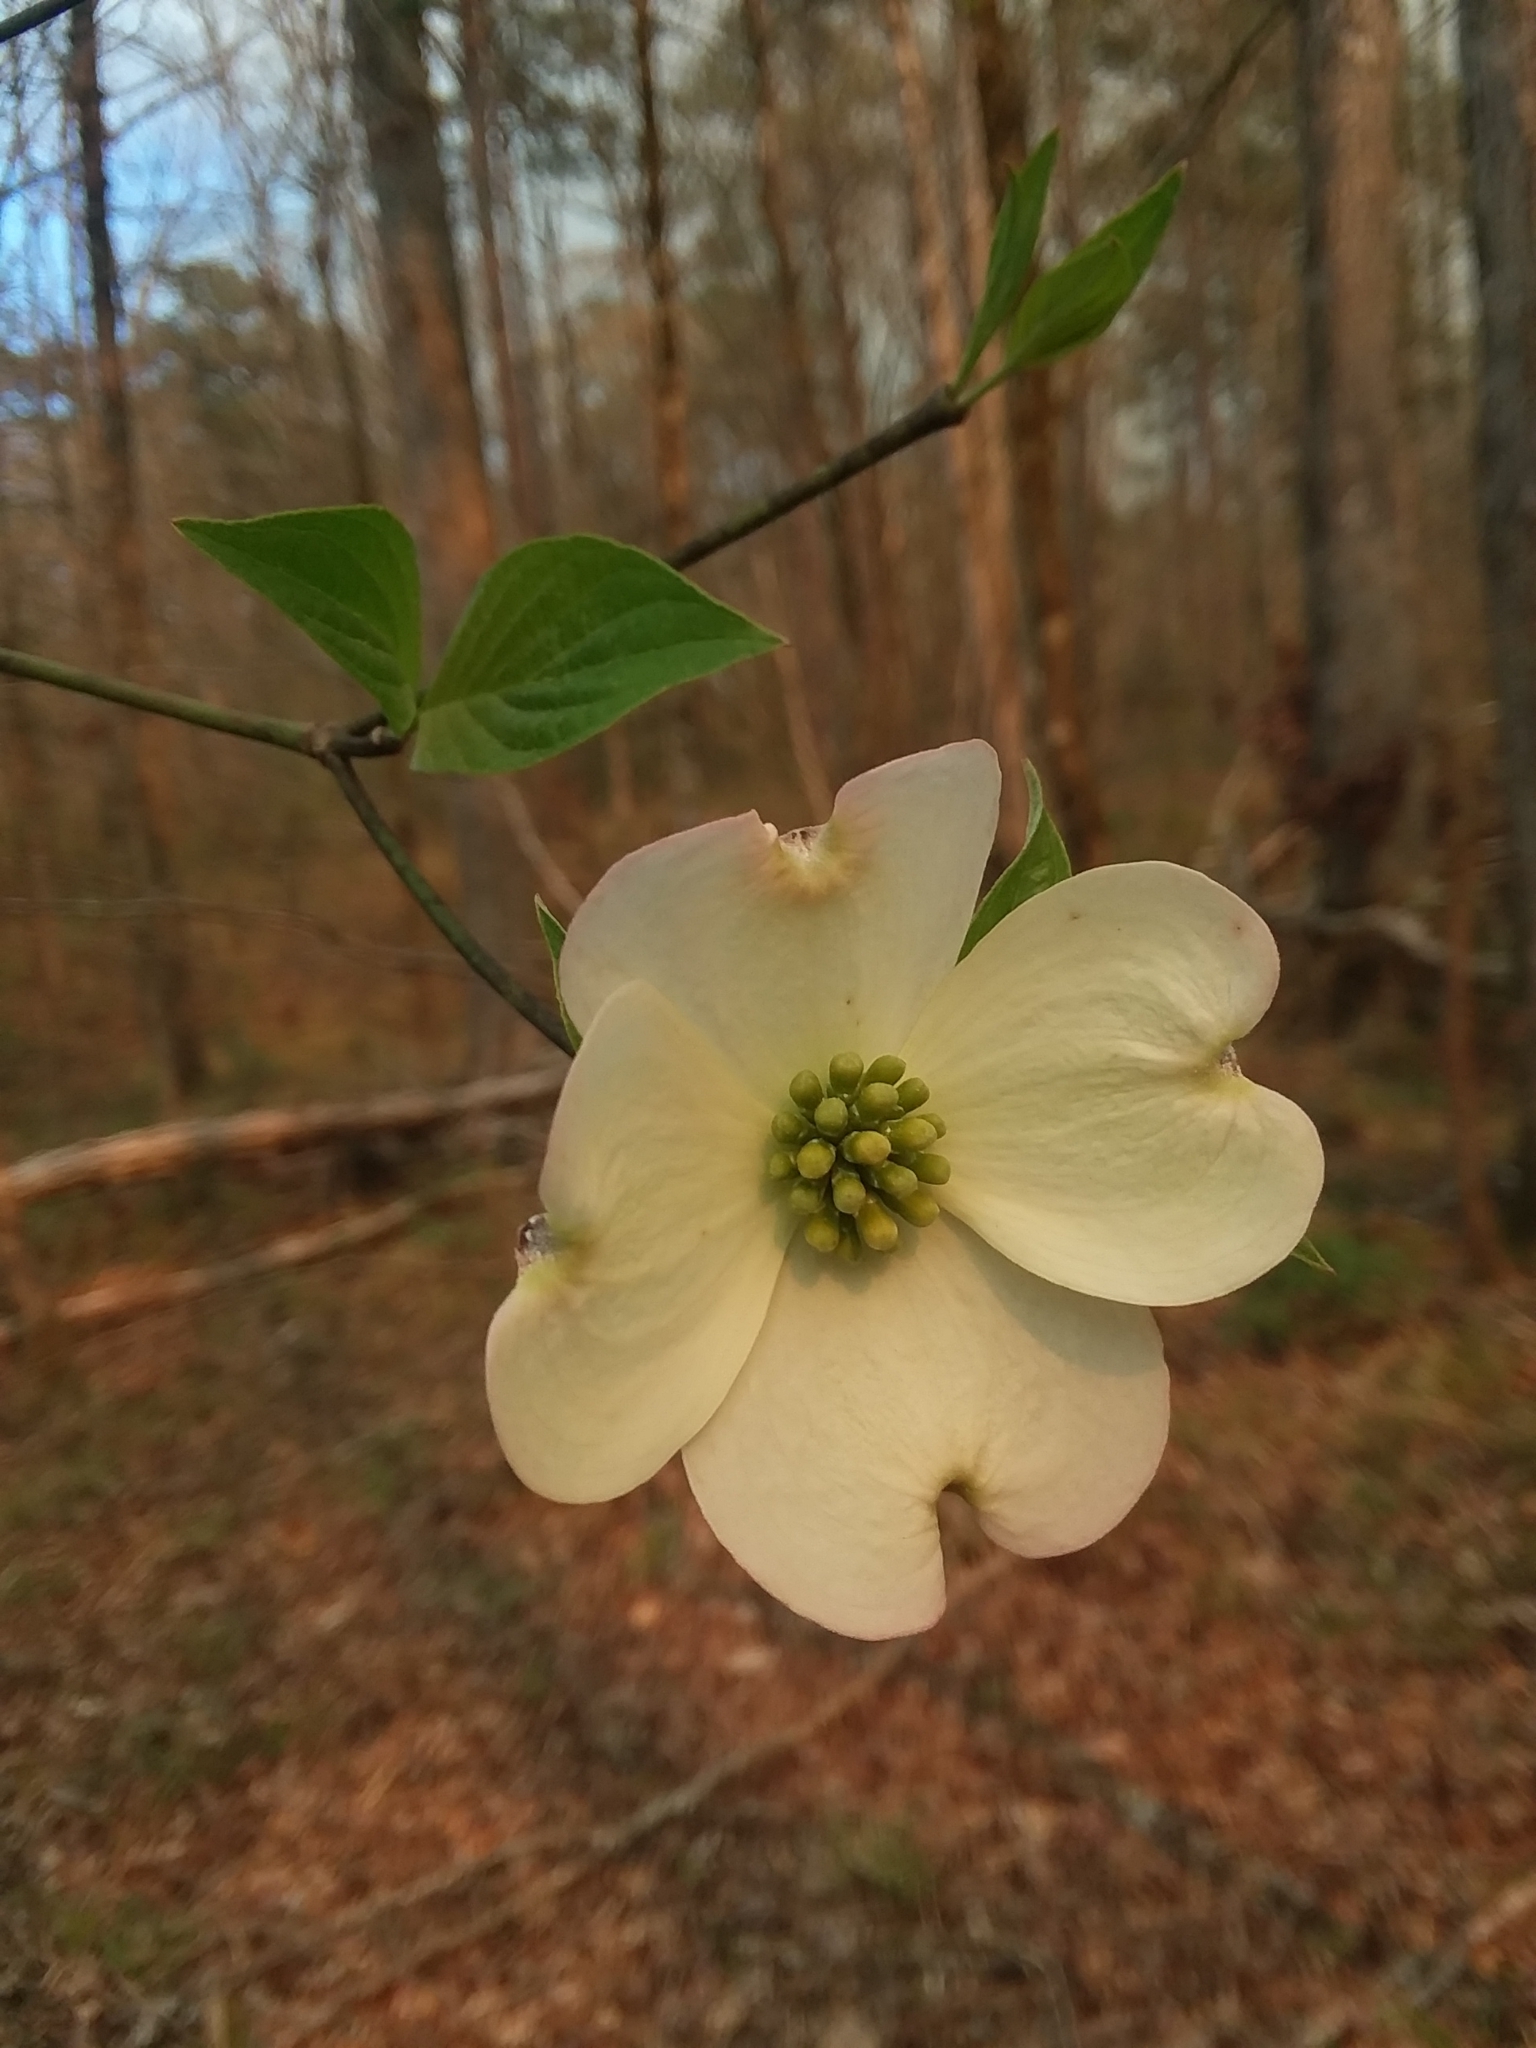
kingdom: Plantae
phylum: Tracheophyta
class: Magnoliopsida
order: Cornales
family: Cornaceae
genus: Cornus
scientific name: Cornus florida
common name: Flowering dogwood
